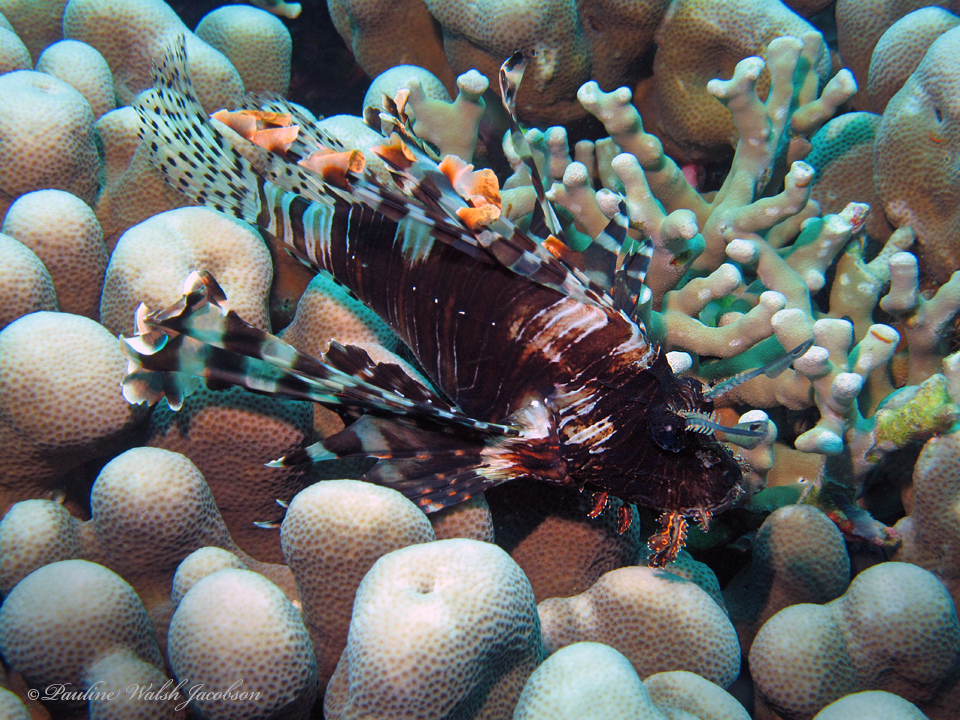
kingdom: Animalia
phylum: Chordata
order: Scorpaeniformes
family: Scorpaenidae
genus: Pterois
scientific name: Pterois volitans
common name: Lionfish
